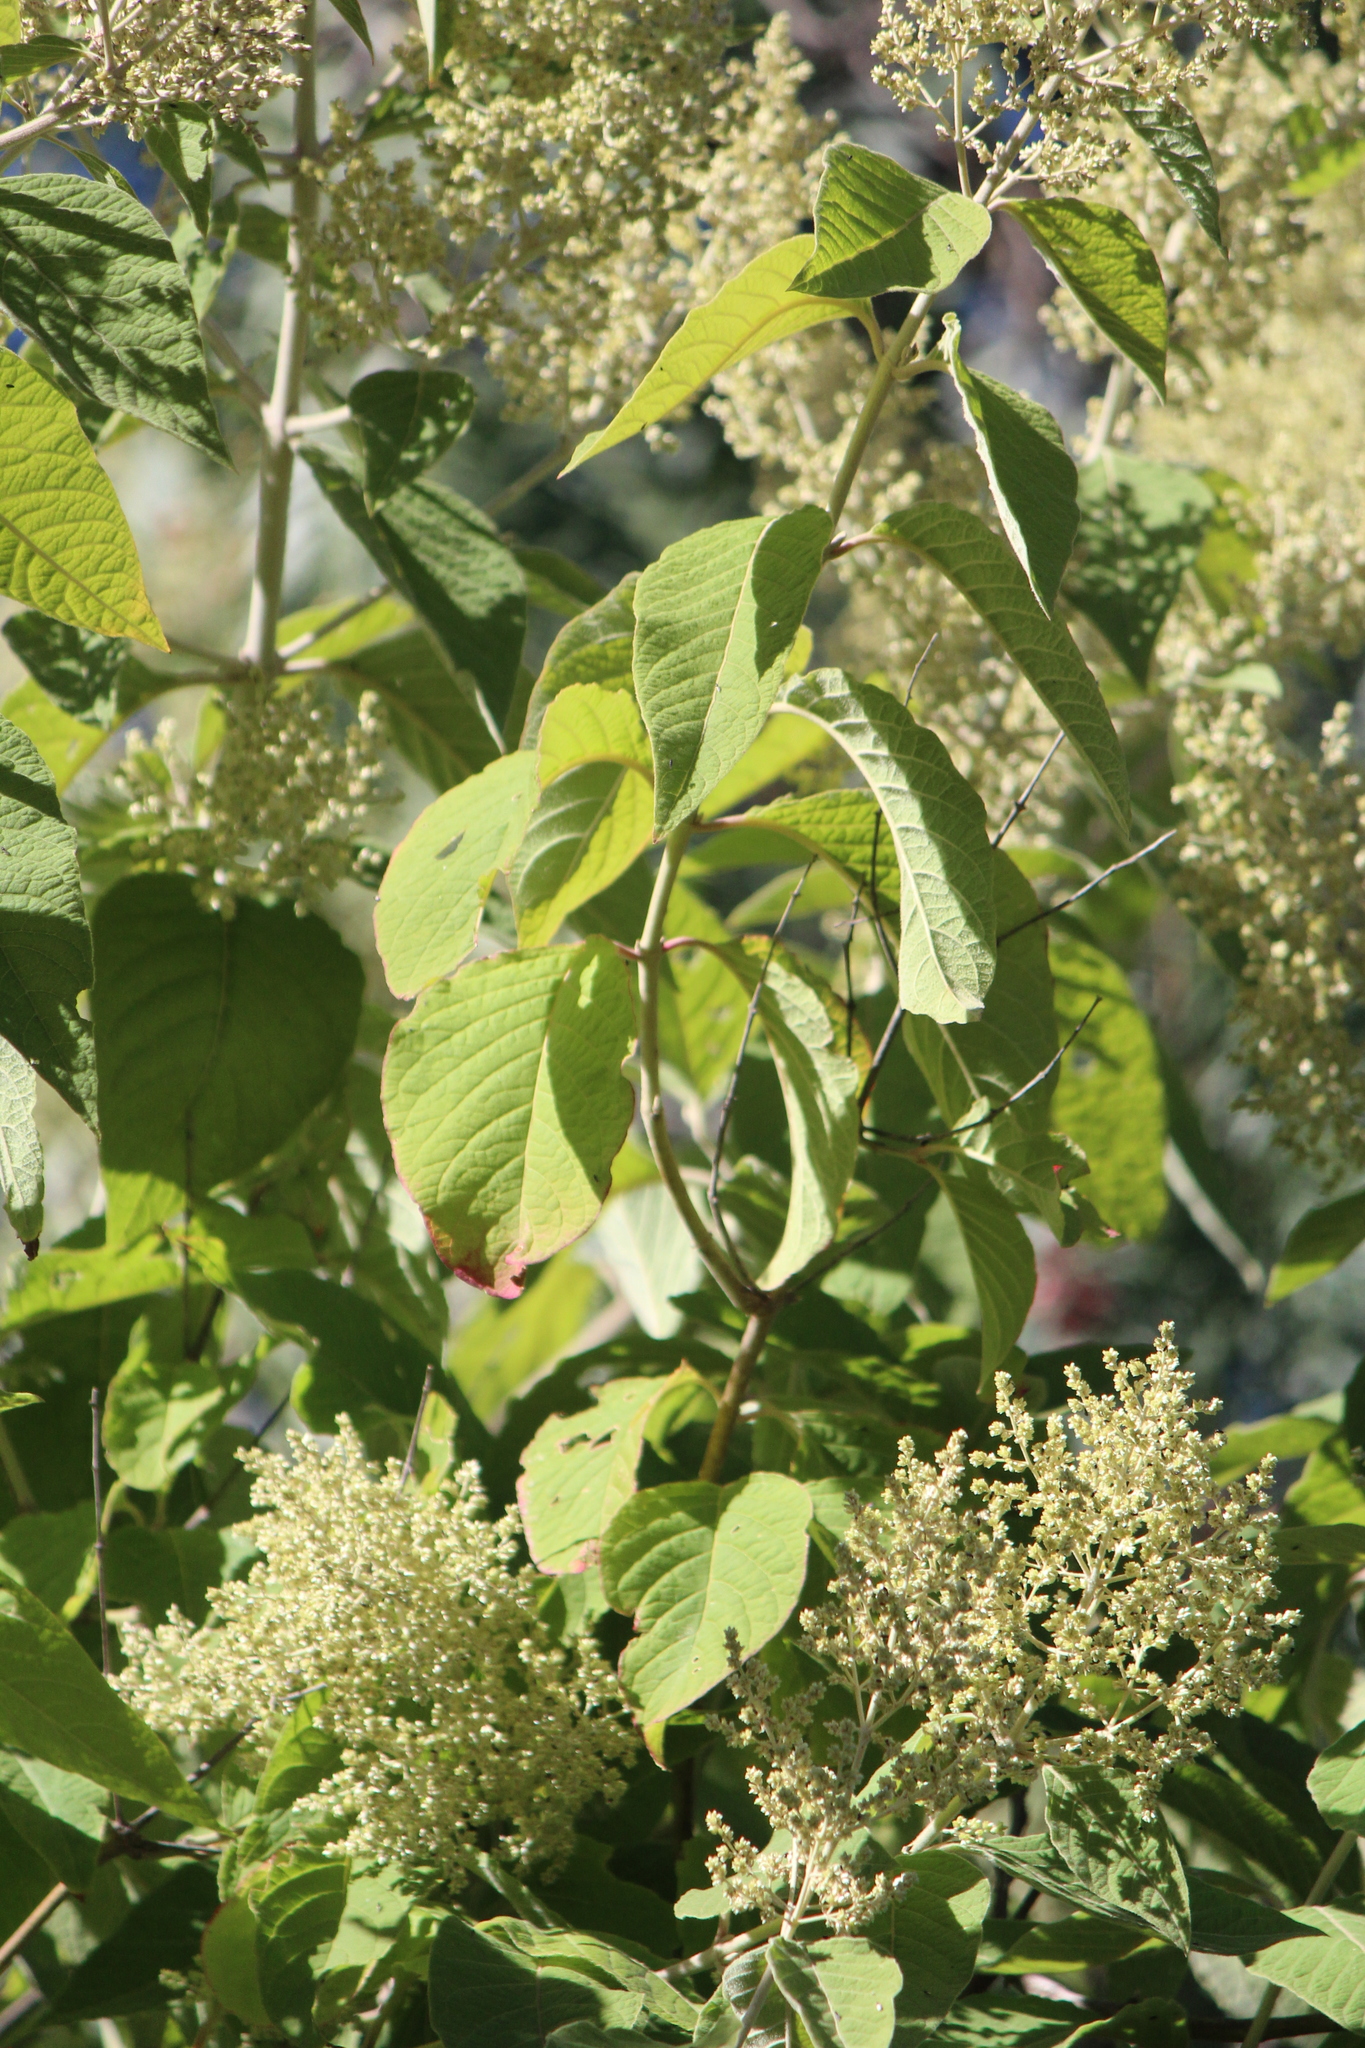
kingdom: Plantae
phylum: Tracheophyta
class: Magnoliopsida
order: Lamiales
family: Scrophulariaceae
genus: Buddleja
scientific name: Buddleja cordata
